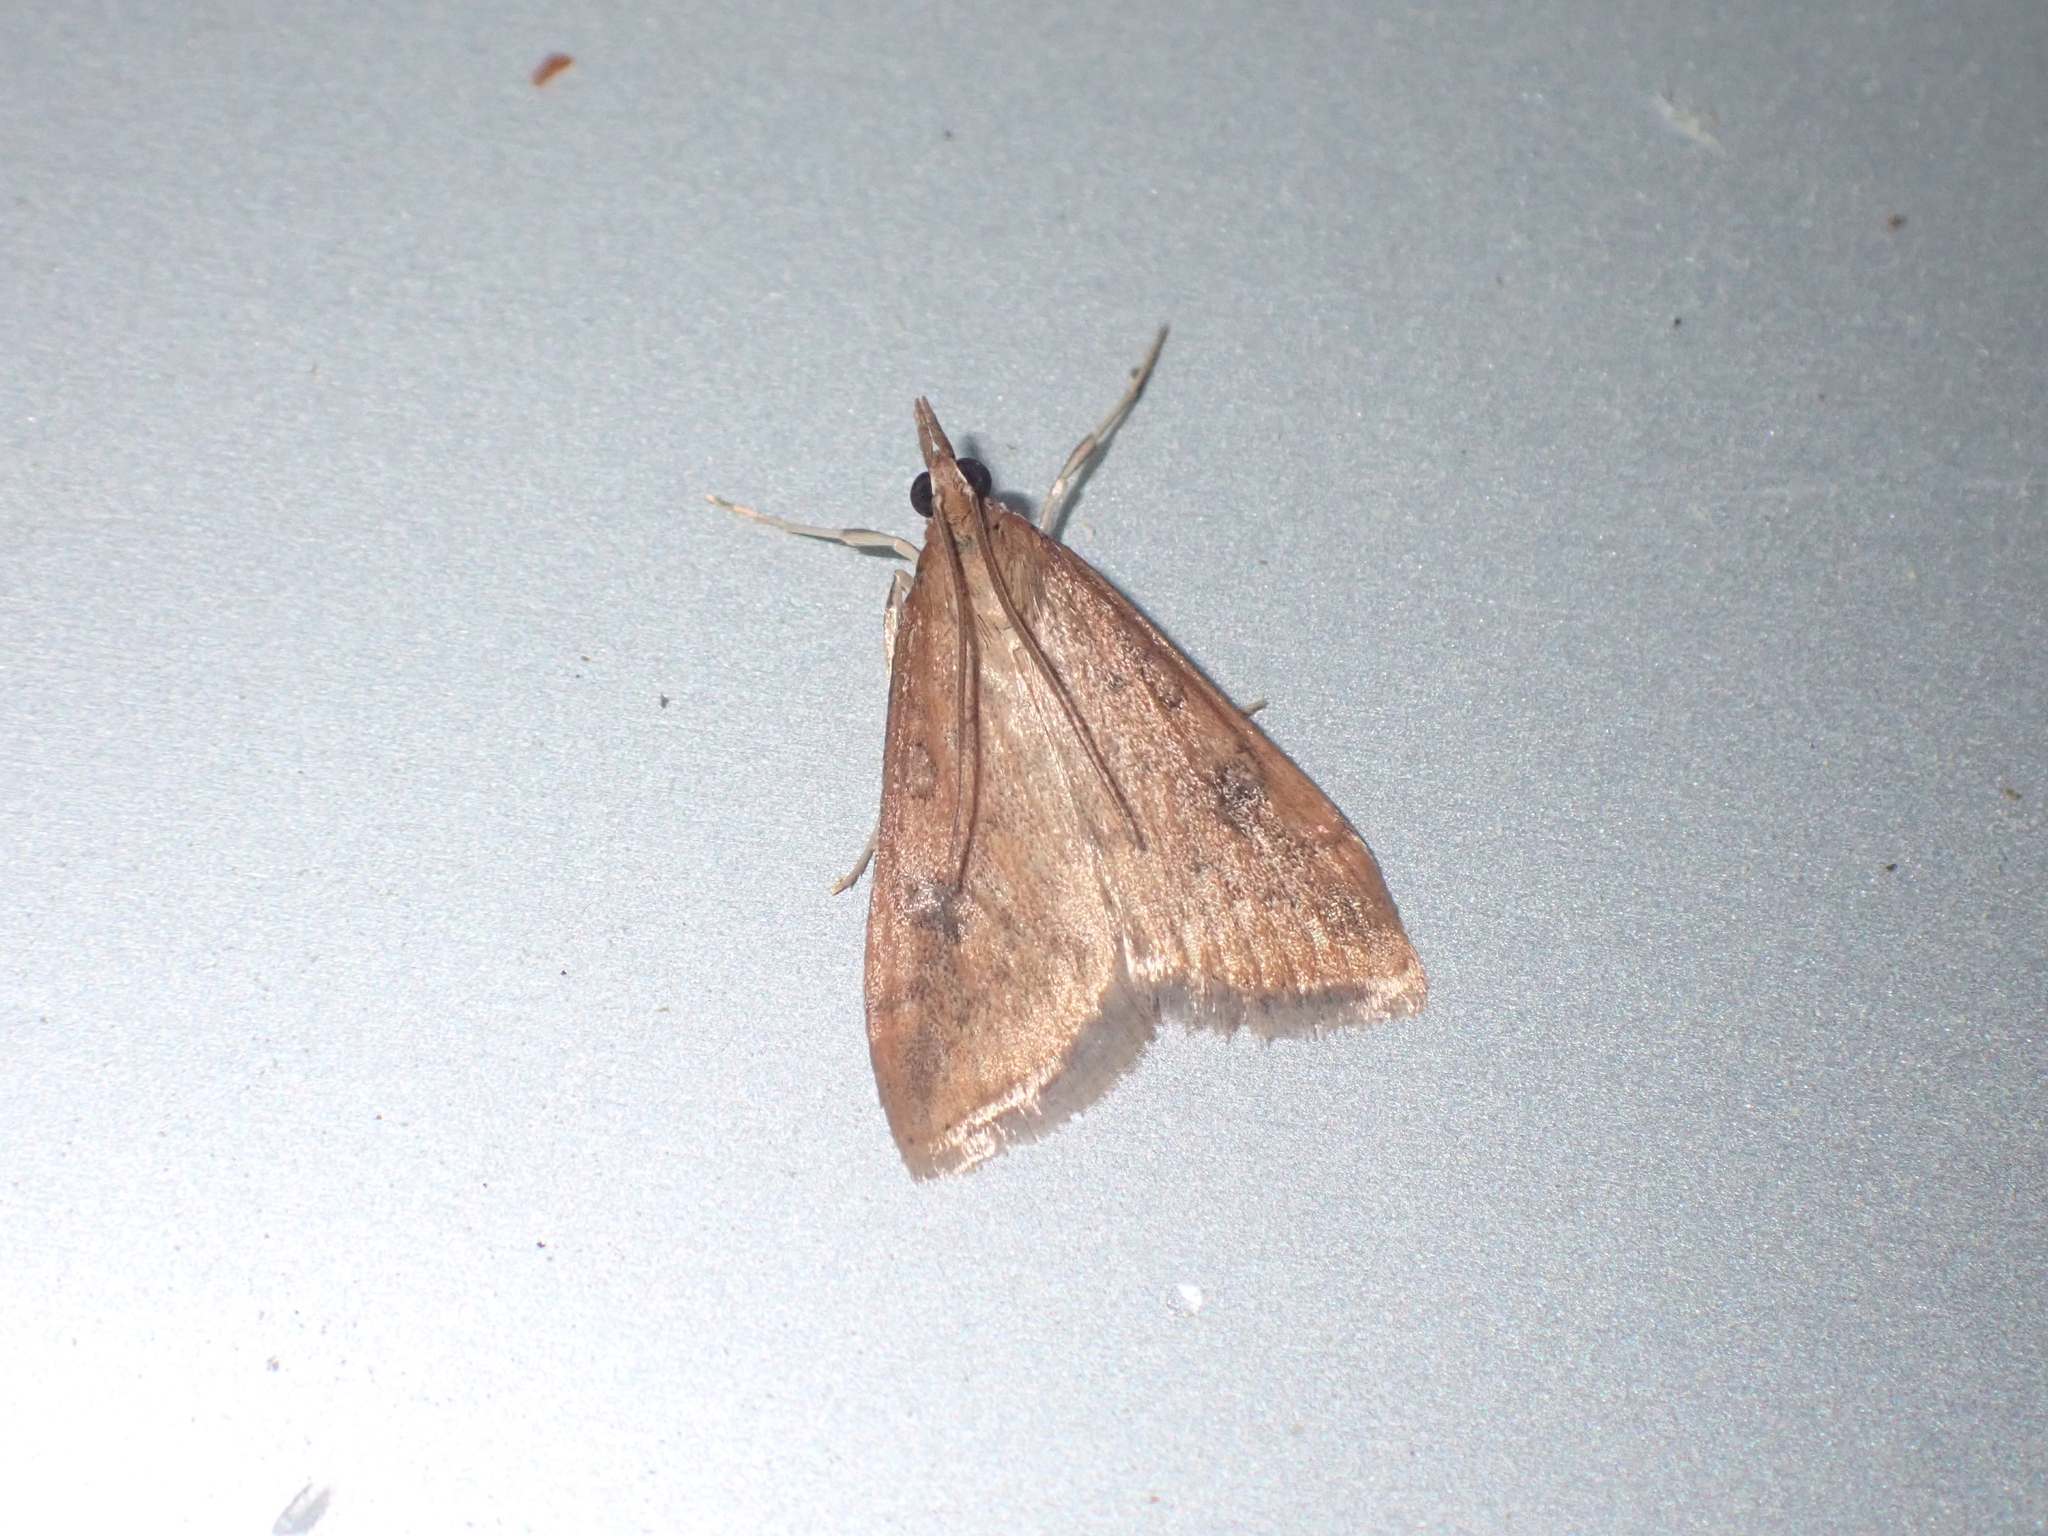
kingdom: Animalia
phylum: Arthropoda
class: Insecta
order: Lepidoptera
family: Crambidae
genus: Udea
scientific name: Udea ferrugalis
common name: Rusty dot
